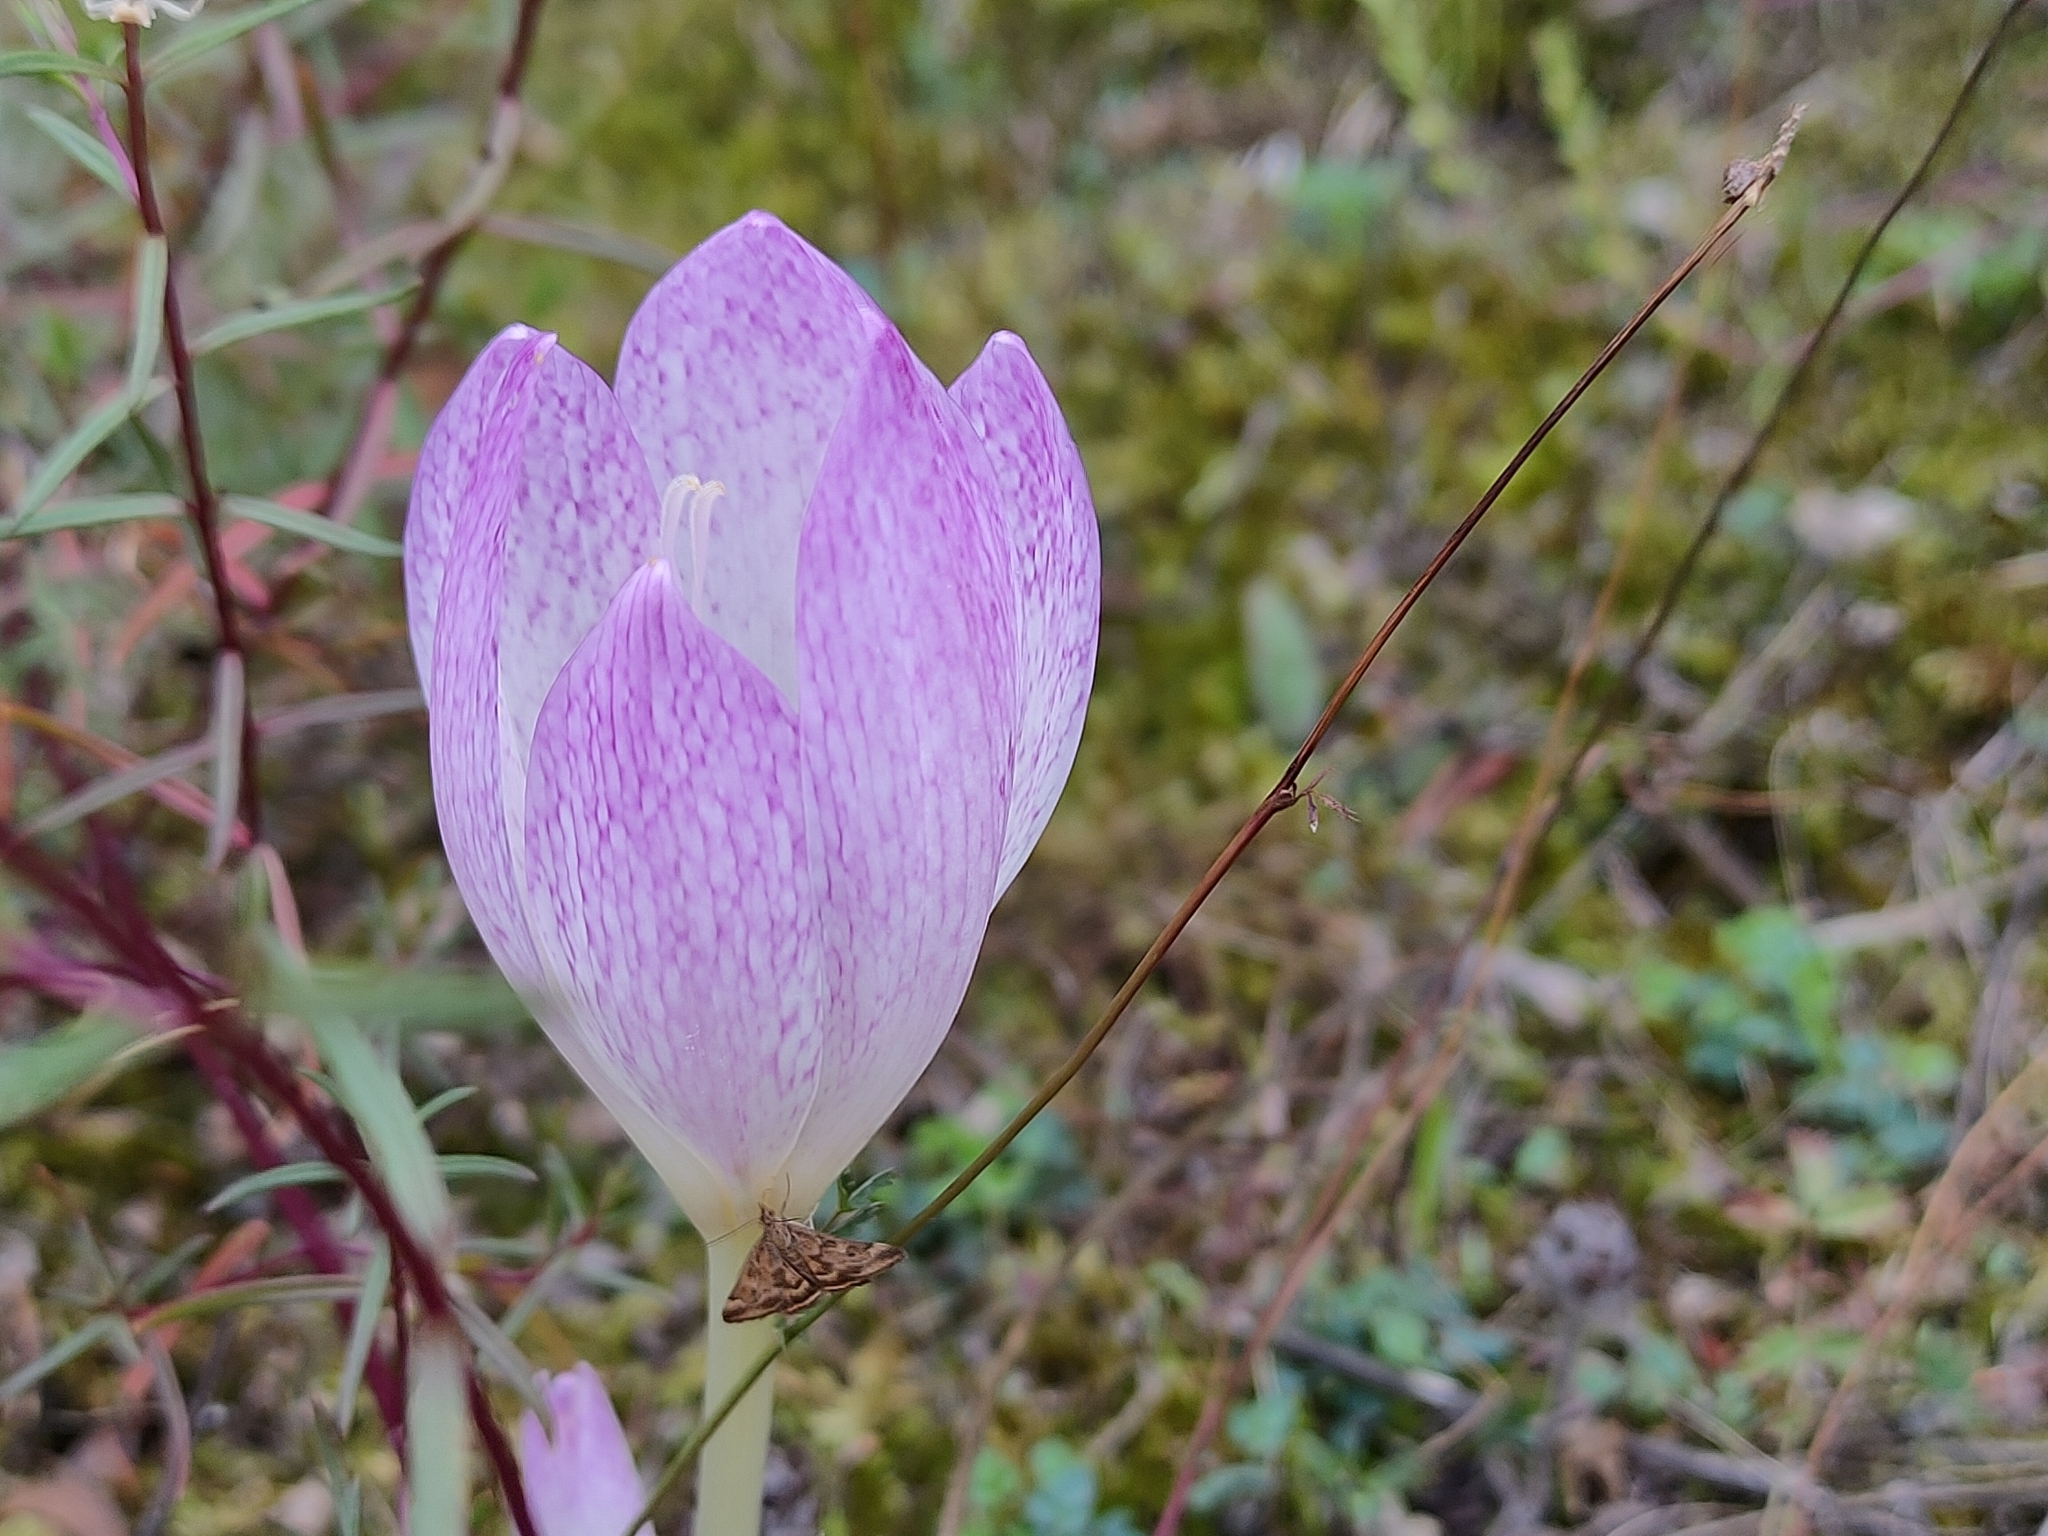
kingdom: Plantae
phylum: Tracheophyta
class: Liliopsida
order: Liliales
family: Colchicaceae
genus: Colchicum
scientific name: Colchicum bivonae
